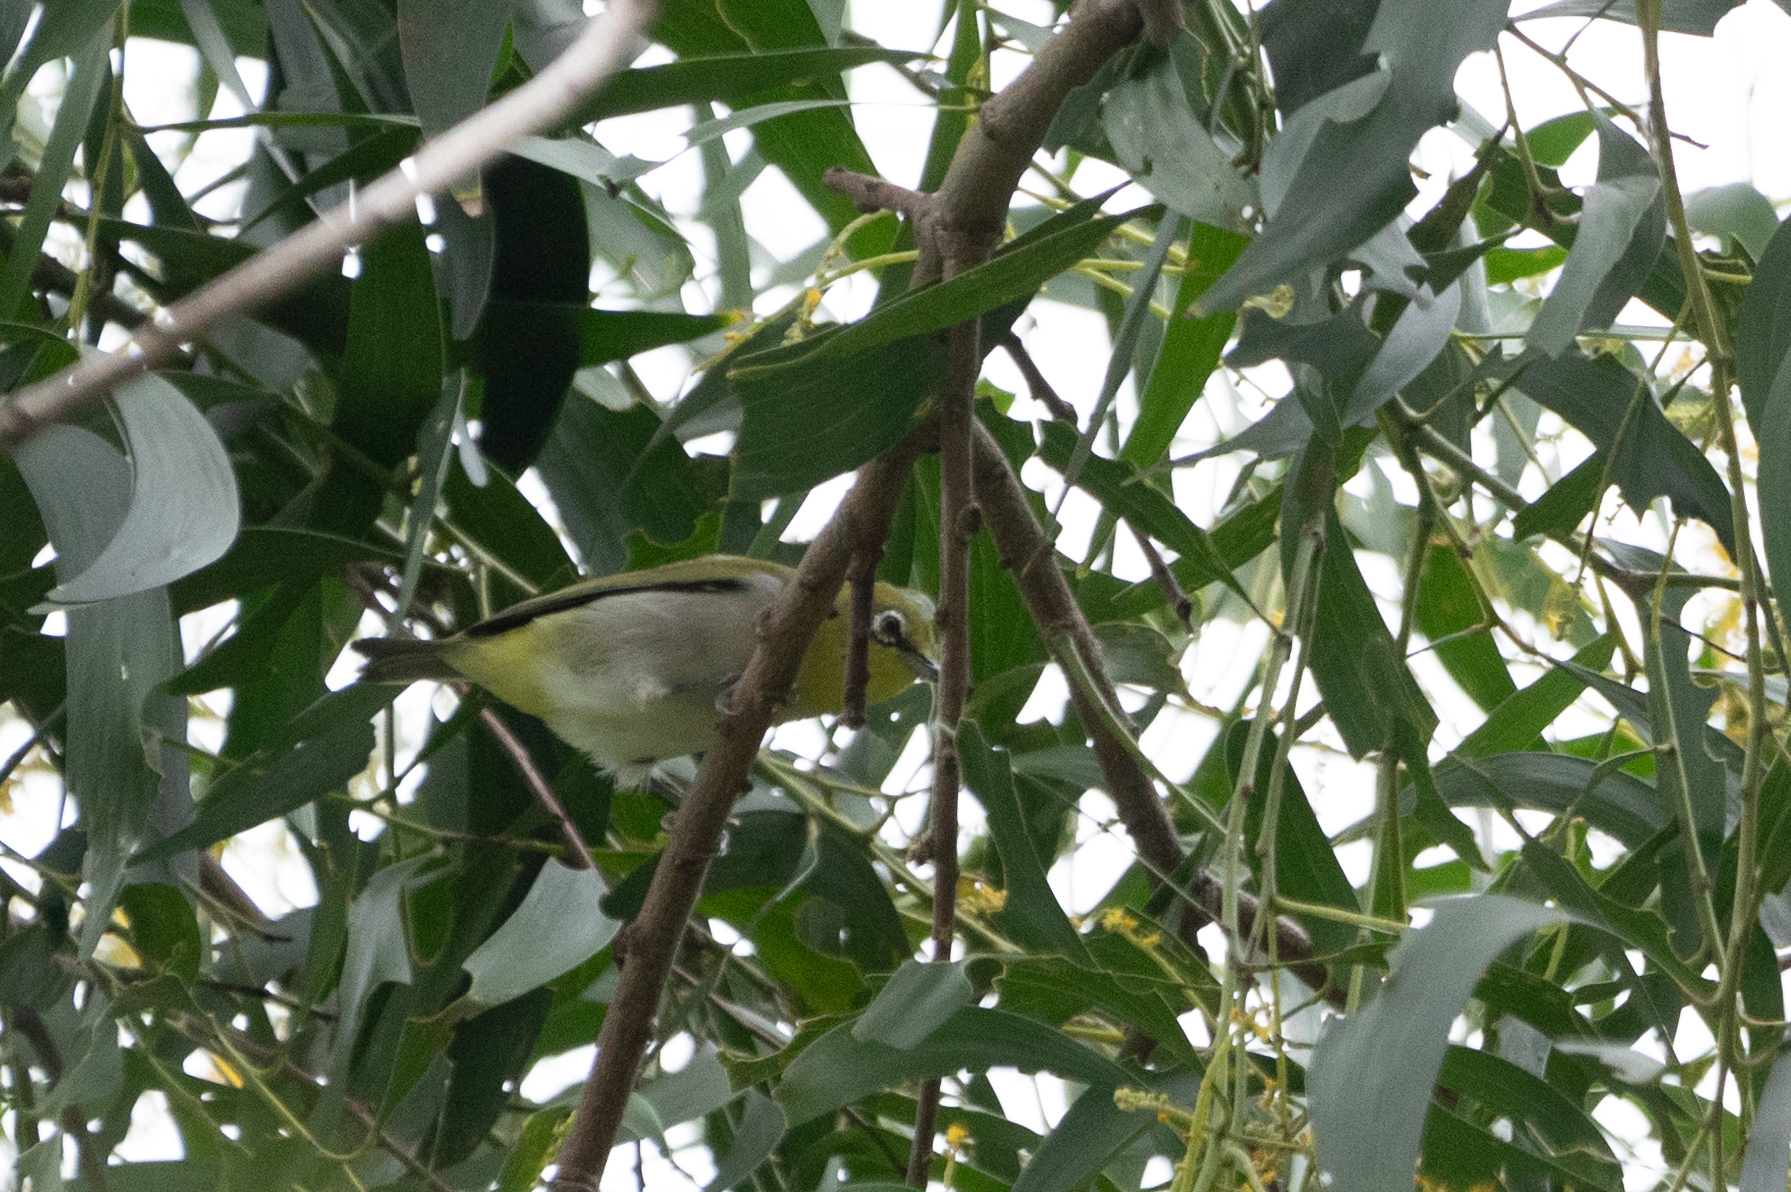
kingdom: Animalia
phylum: Chordata
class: Aves
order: Passeriformes
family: Zosteropidae
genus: Zosterops
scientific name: Zosterops simplex
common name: Swinhoe's white-eye
